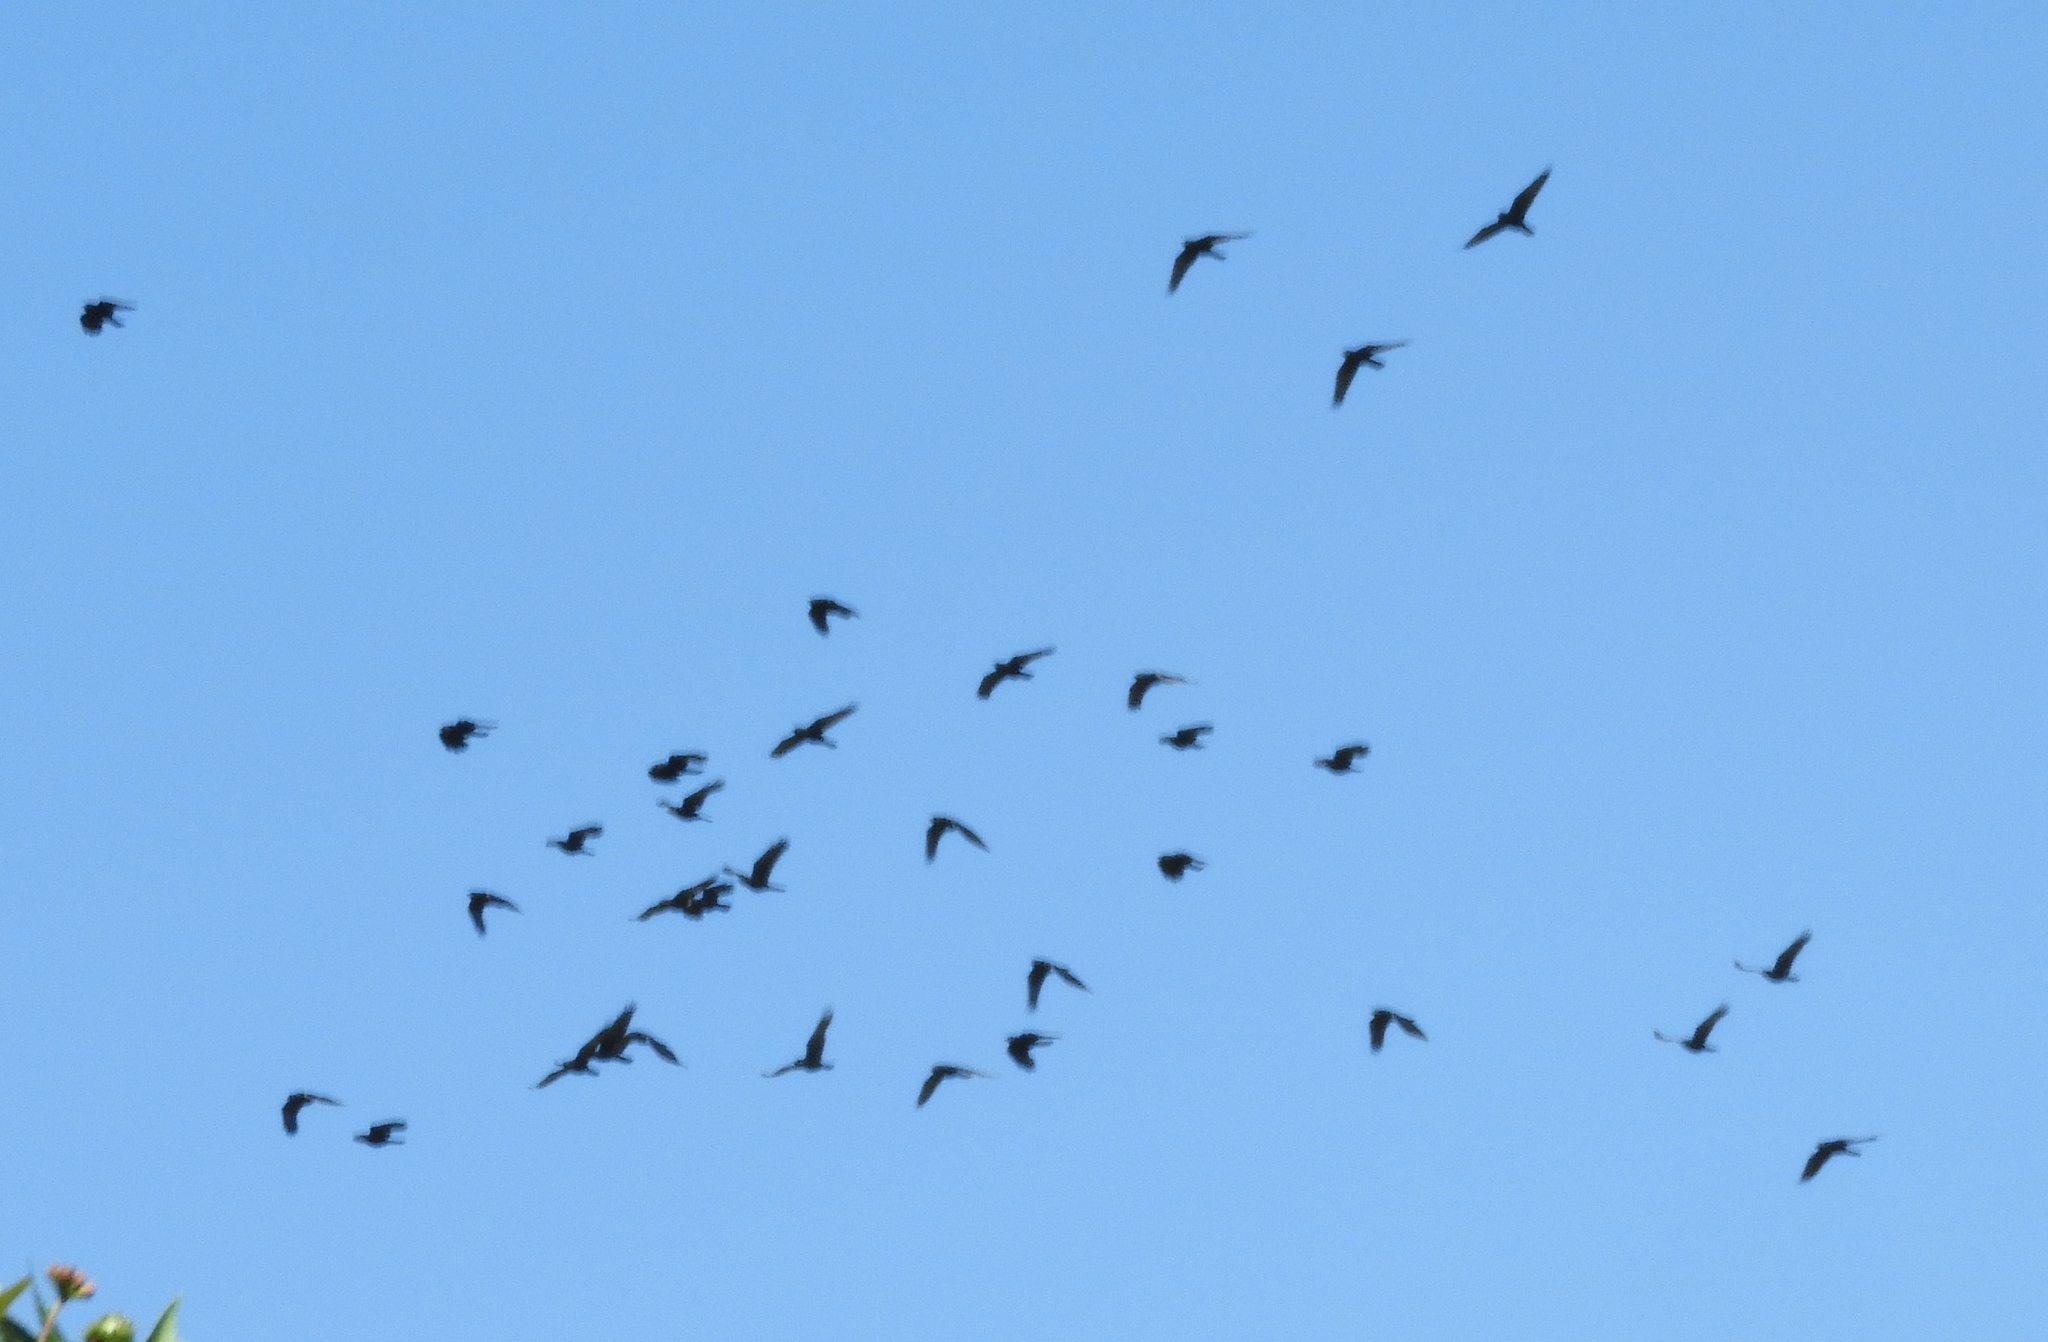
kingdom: Animalia
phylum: Chordata
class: Aves
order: Passeriformes
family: Corvidae
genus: Corvus
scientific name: Corvus sinaloae
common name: Sinaloa crow
